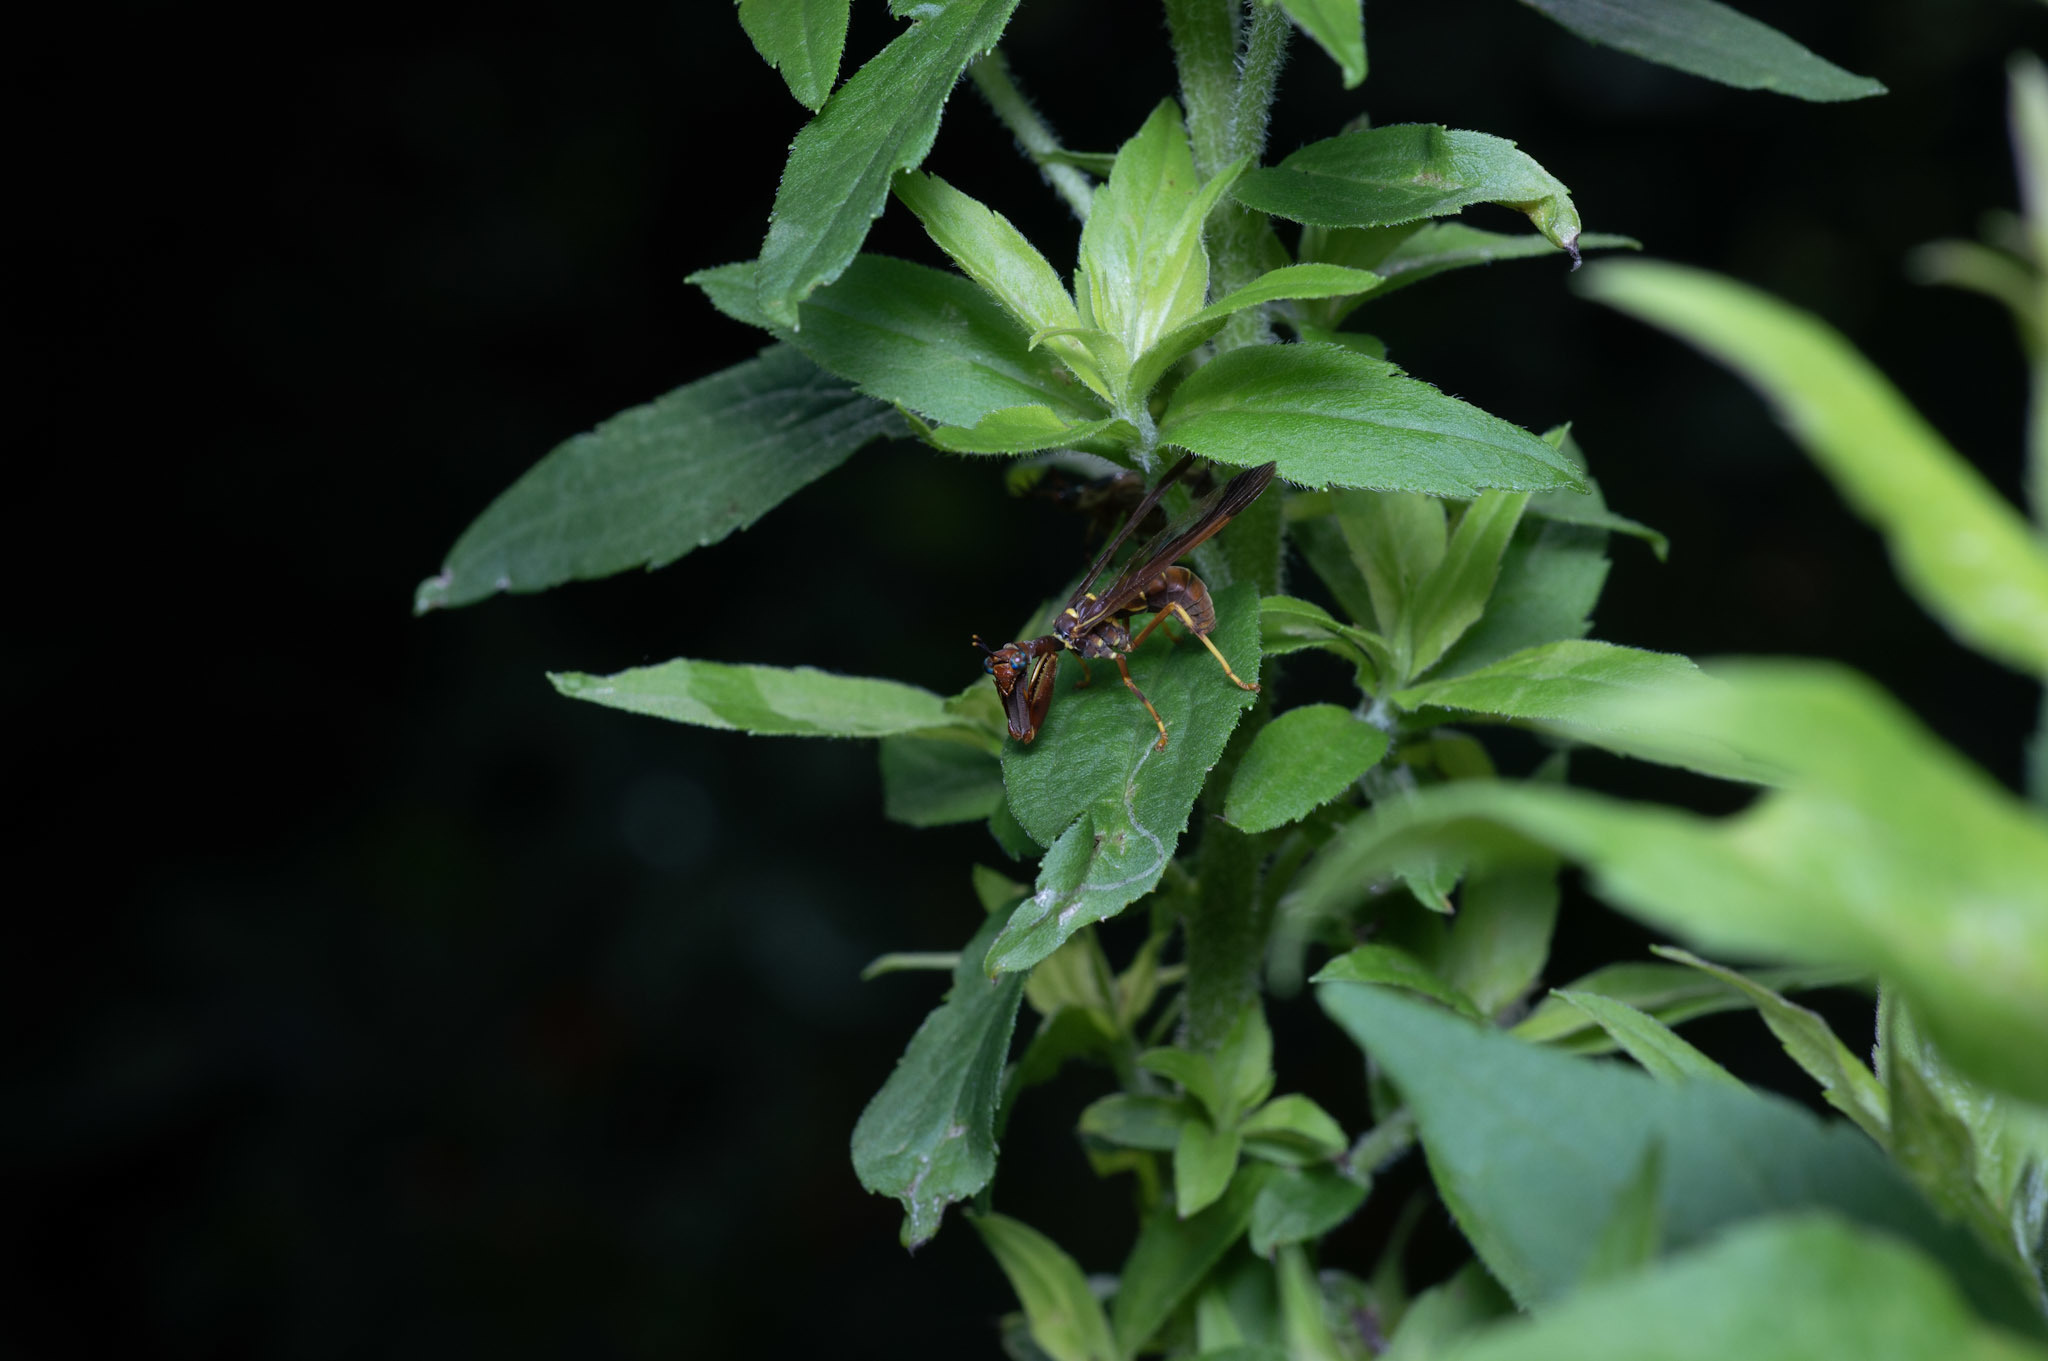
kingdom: Animalia
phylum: Arthropoda
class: Insecta
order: Neuroptera
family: Mantispidae
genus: Climaciella
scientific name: Climaciella brunnea
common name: Brown wasp mantidfly
